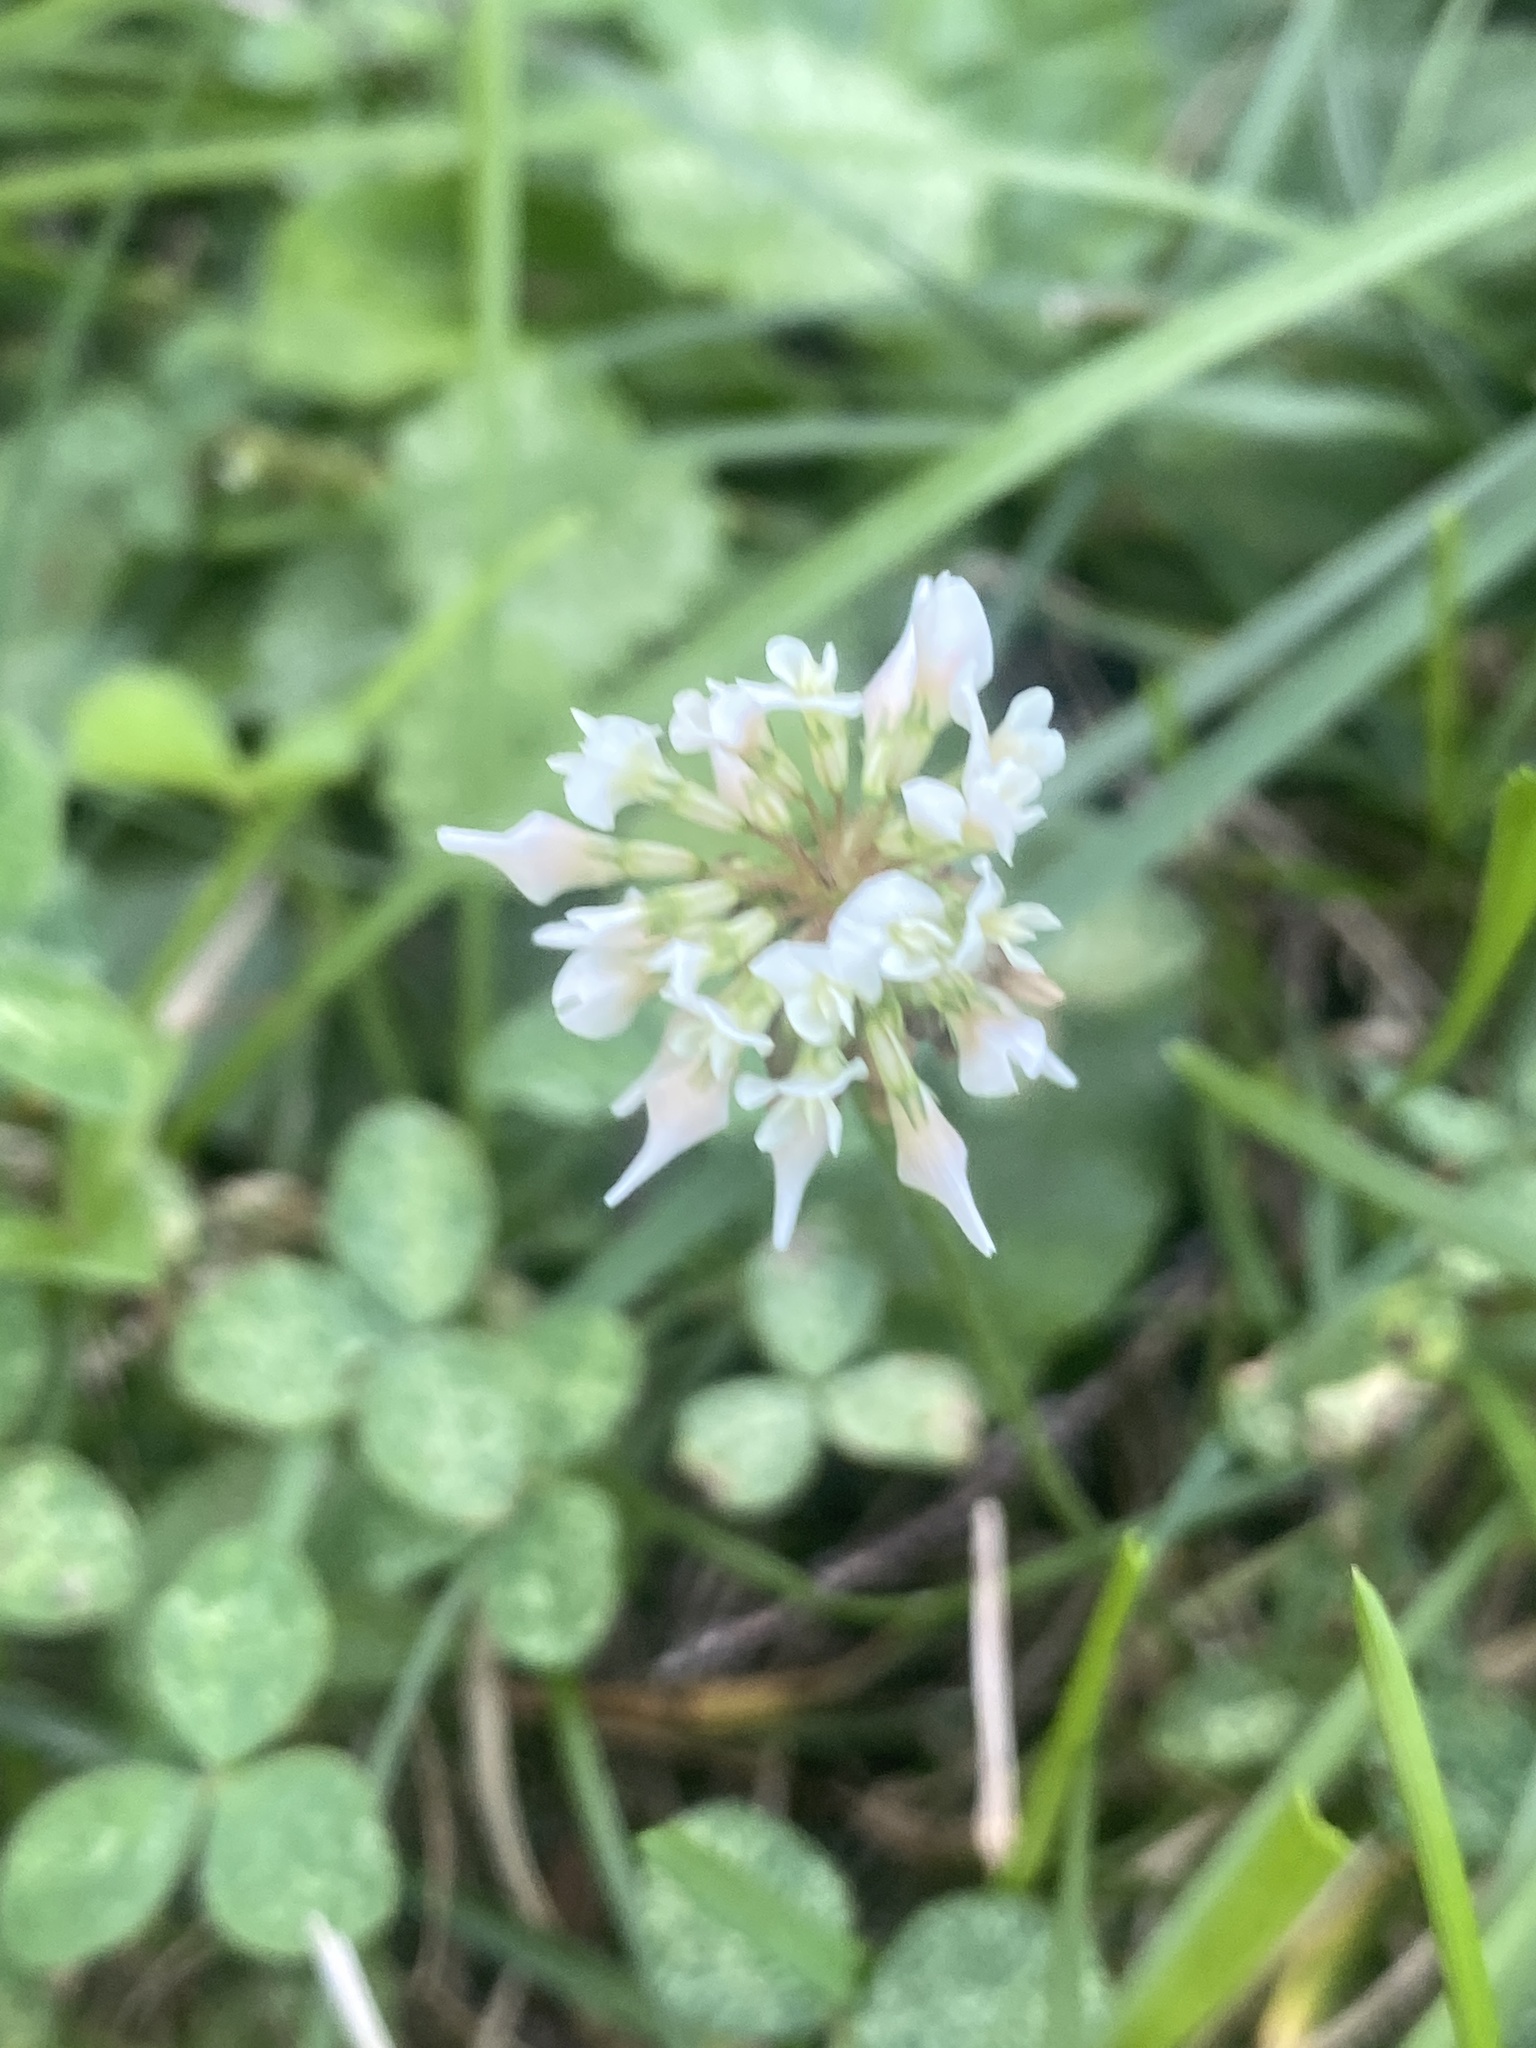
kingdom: Plantae
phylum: Tracheophyta
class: Magnoliopsida
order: Fabales
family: Fabaceae
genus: Trifolium
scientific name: Trifolium repens
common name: White clover
